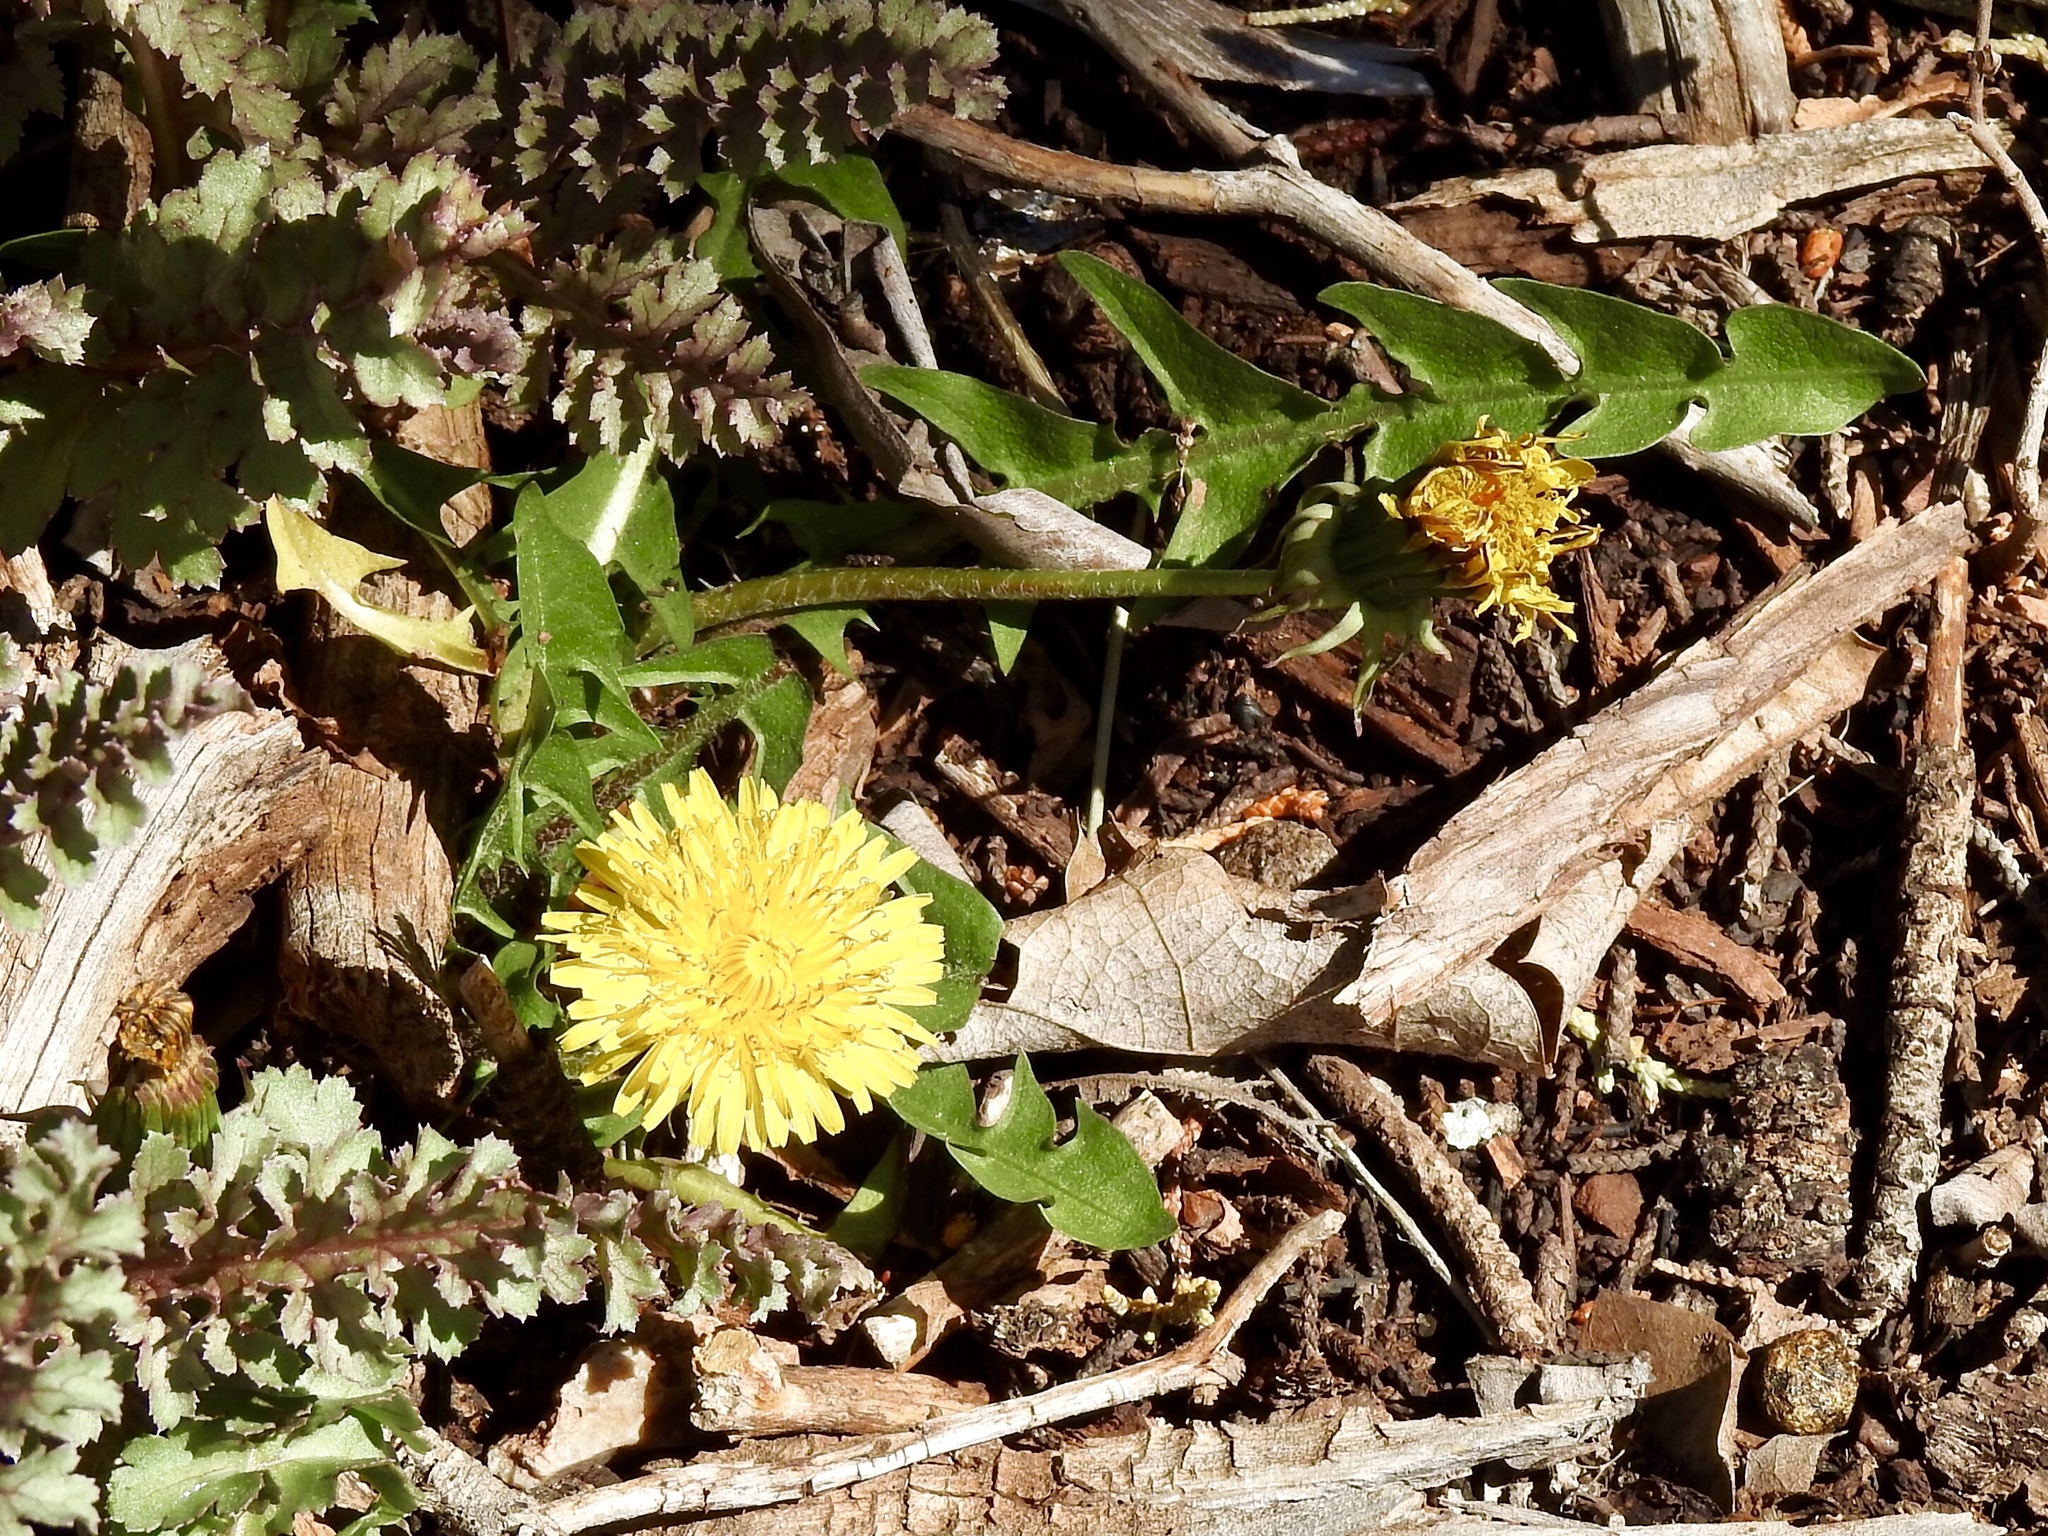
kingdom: Plantae
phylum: Tracheophyta
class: Magnoliopsida
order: Asterales
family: Asteraceae
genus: Taraxacum
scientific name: Taraxacum officinale
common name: Common dandelion
